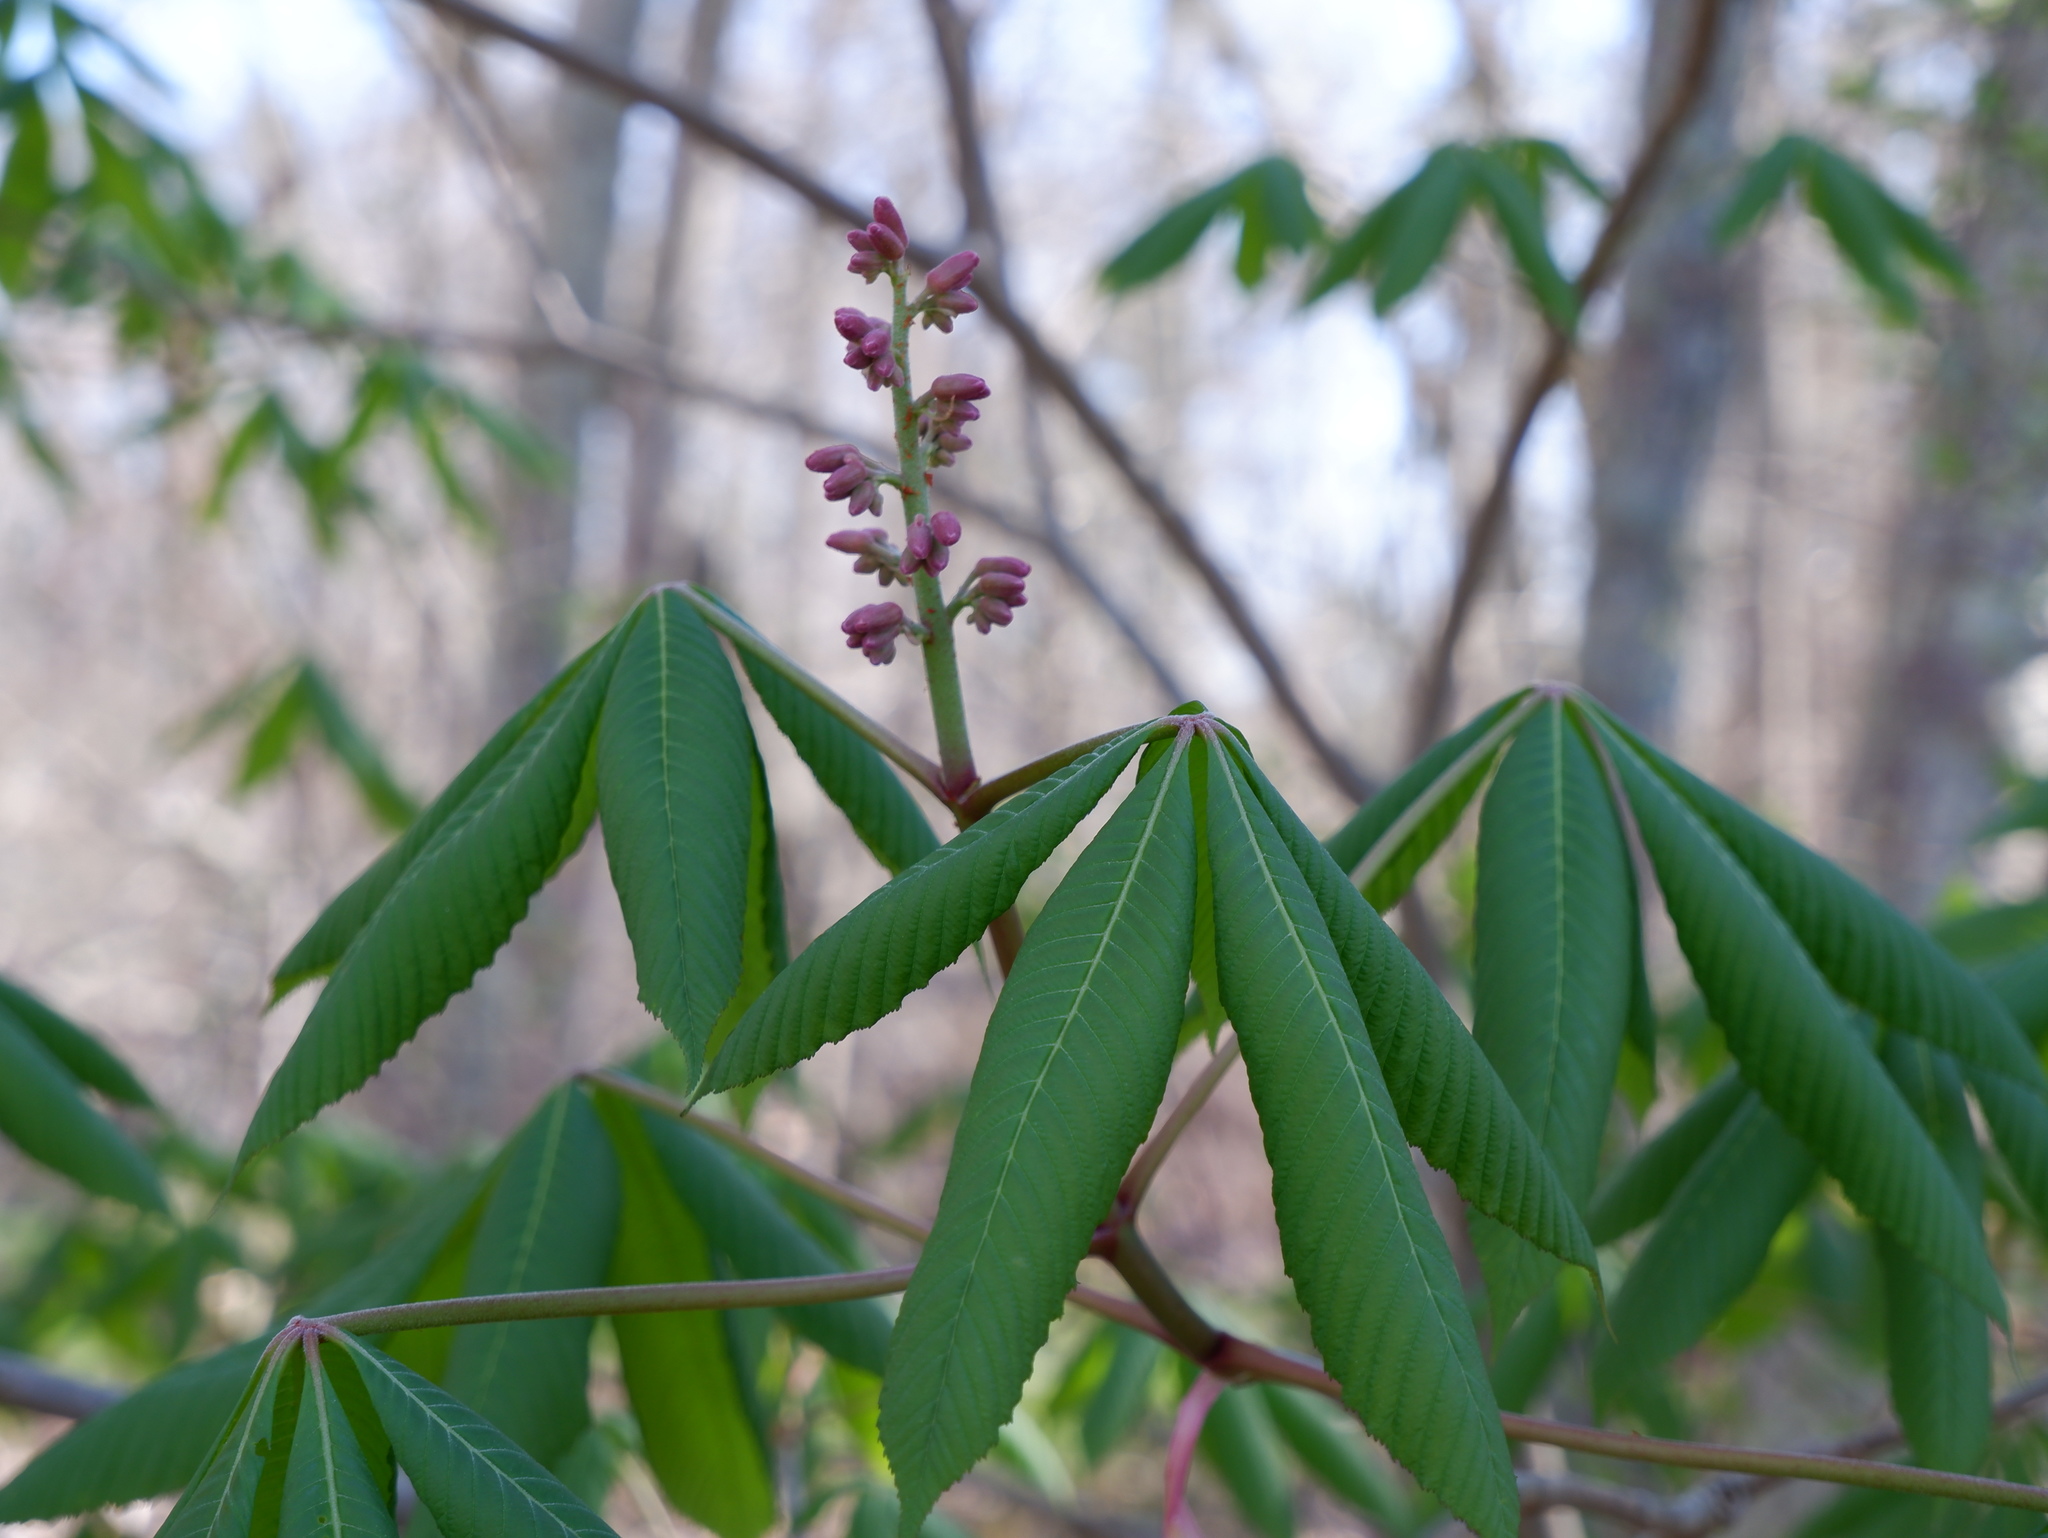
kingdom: Plantae
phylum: Tracheophyta
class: Magnoliopsida
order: Sapindales
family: Sapindaceae
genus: Aesculus
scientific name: Aesculus pavia
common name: Red buckeye
